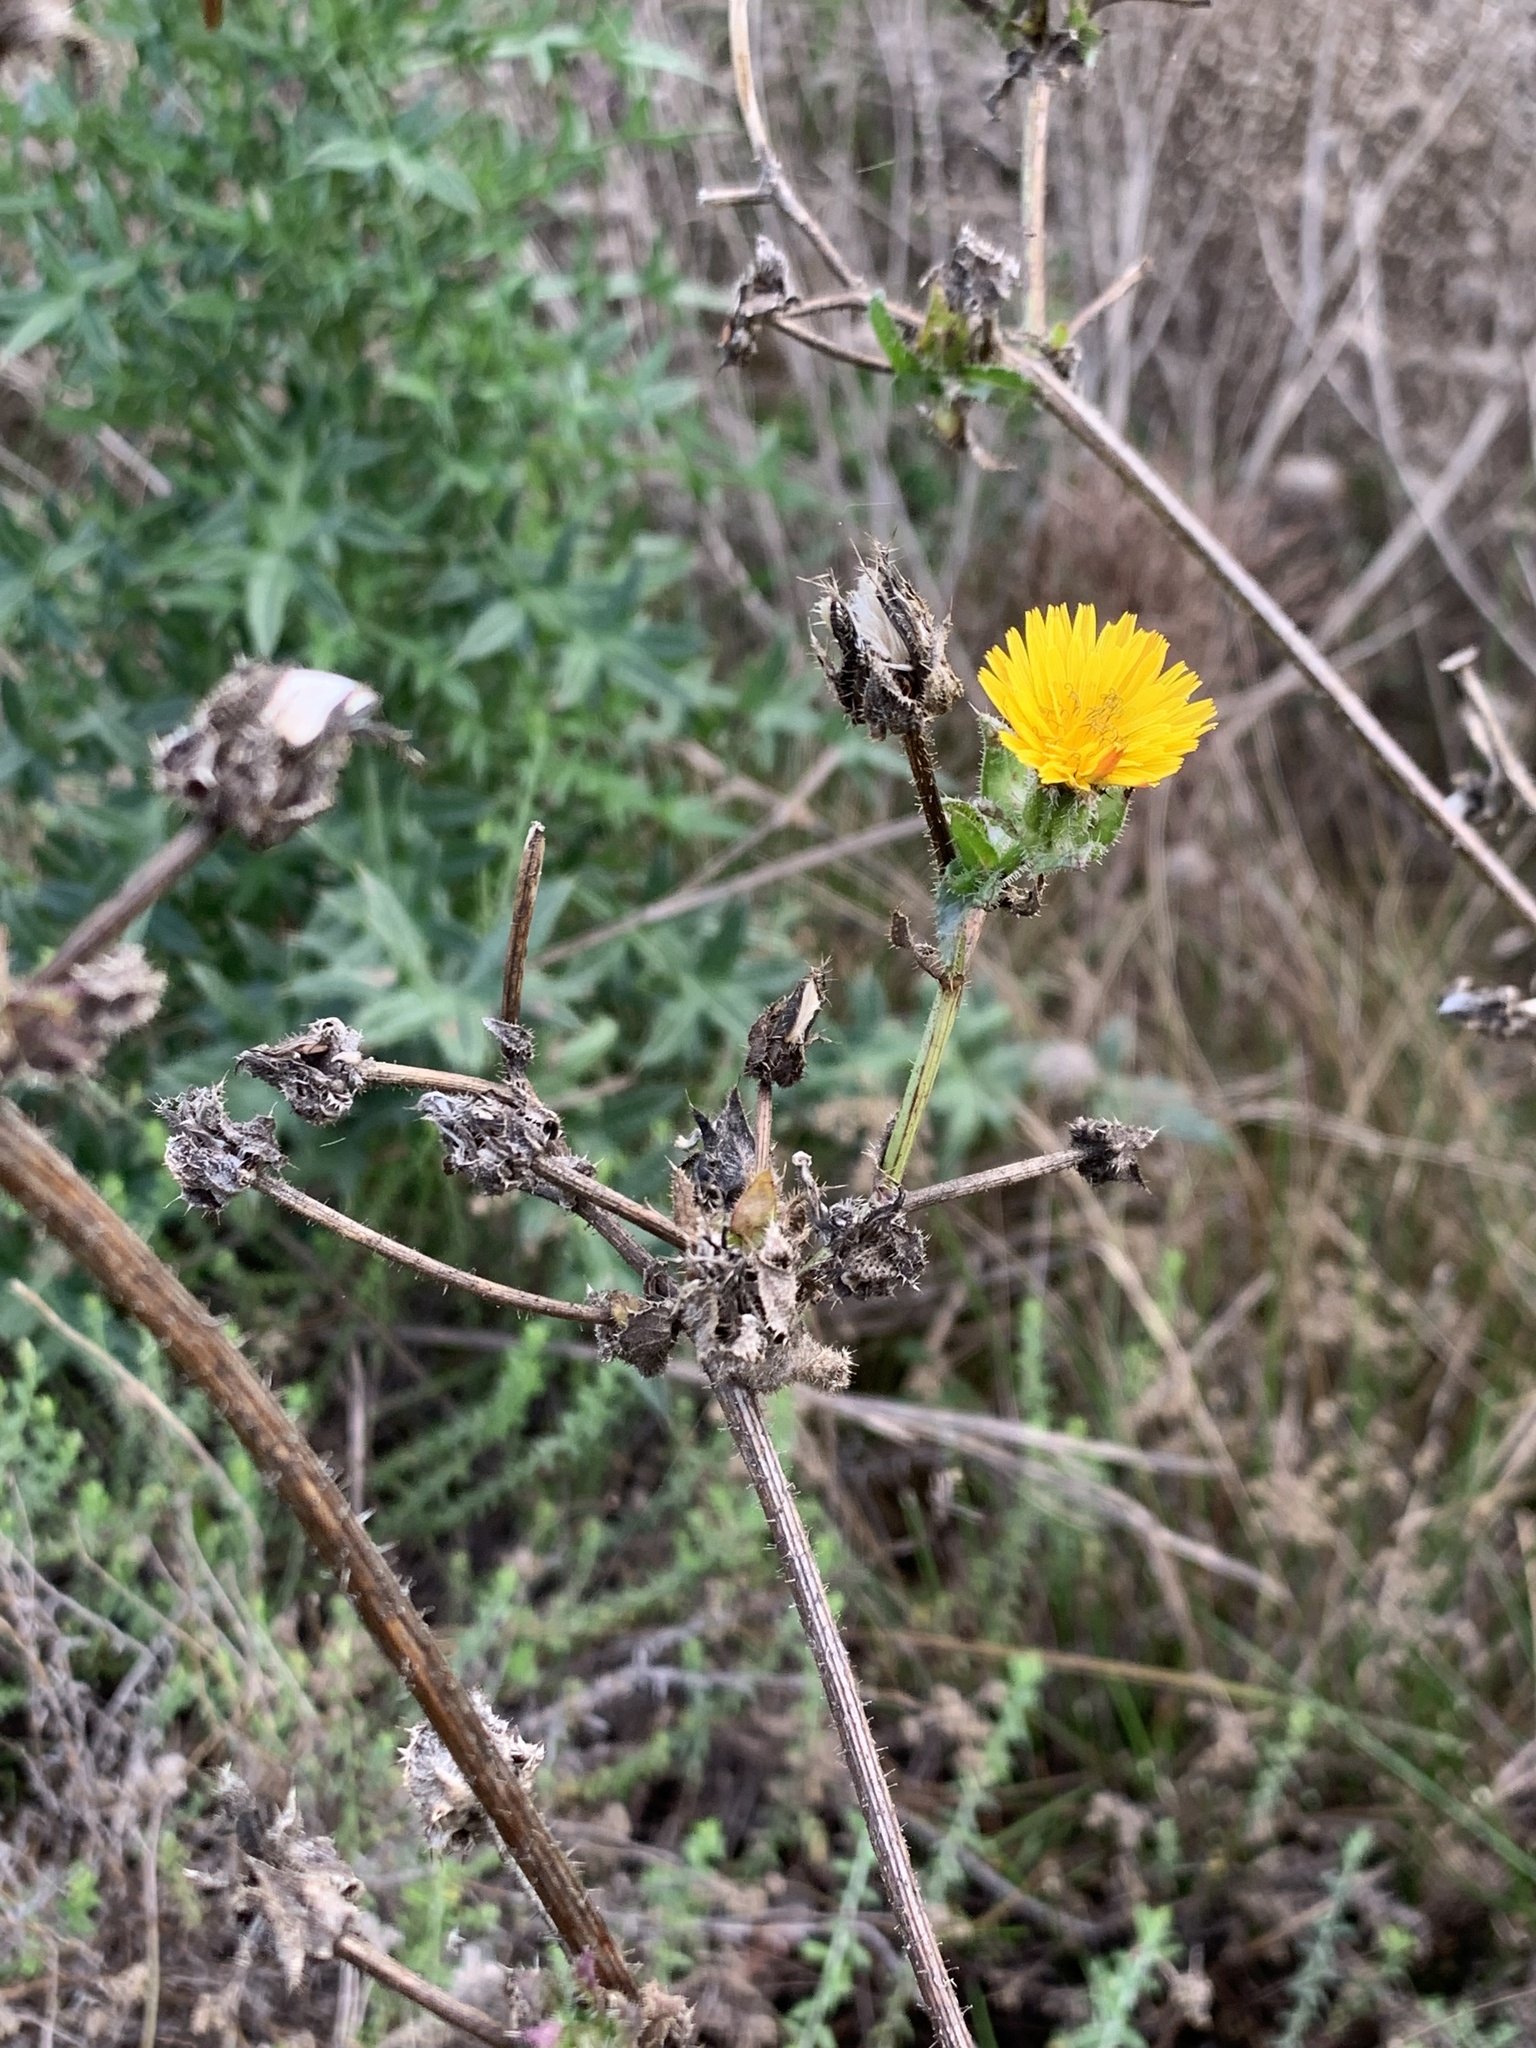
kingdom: Plantae
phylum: Tracheophyta
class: Magnoliopsida
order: Asterales
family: Asteraceae
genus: Helminthotheca
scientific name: Helminthotheca echioides
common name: Ox-tongue
